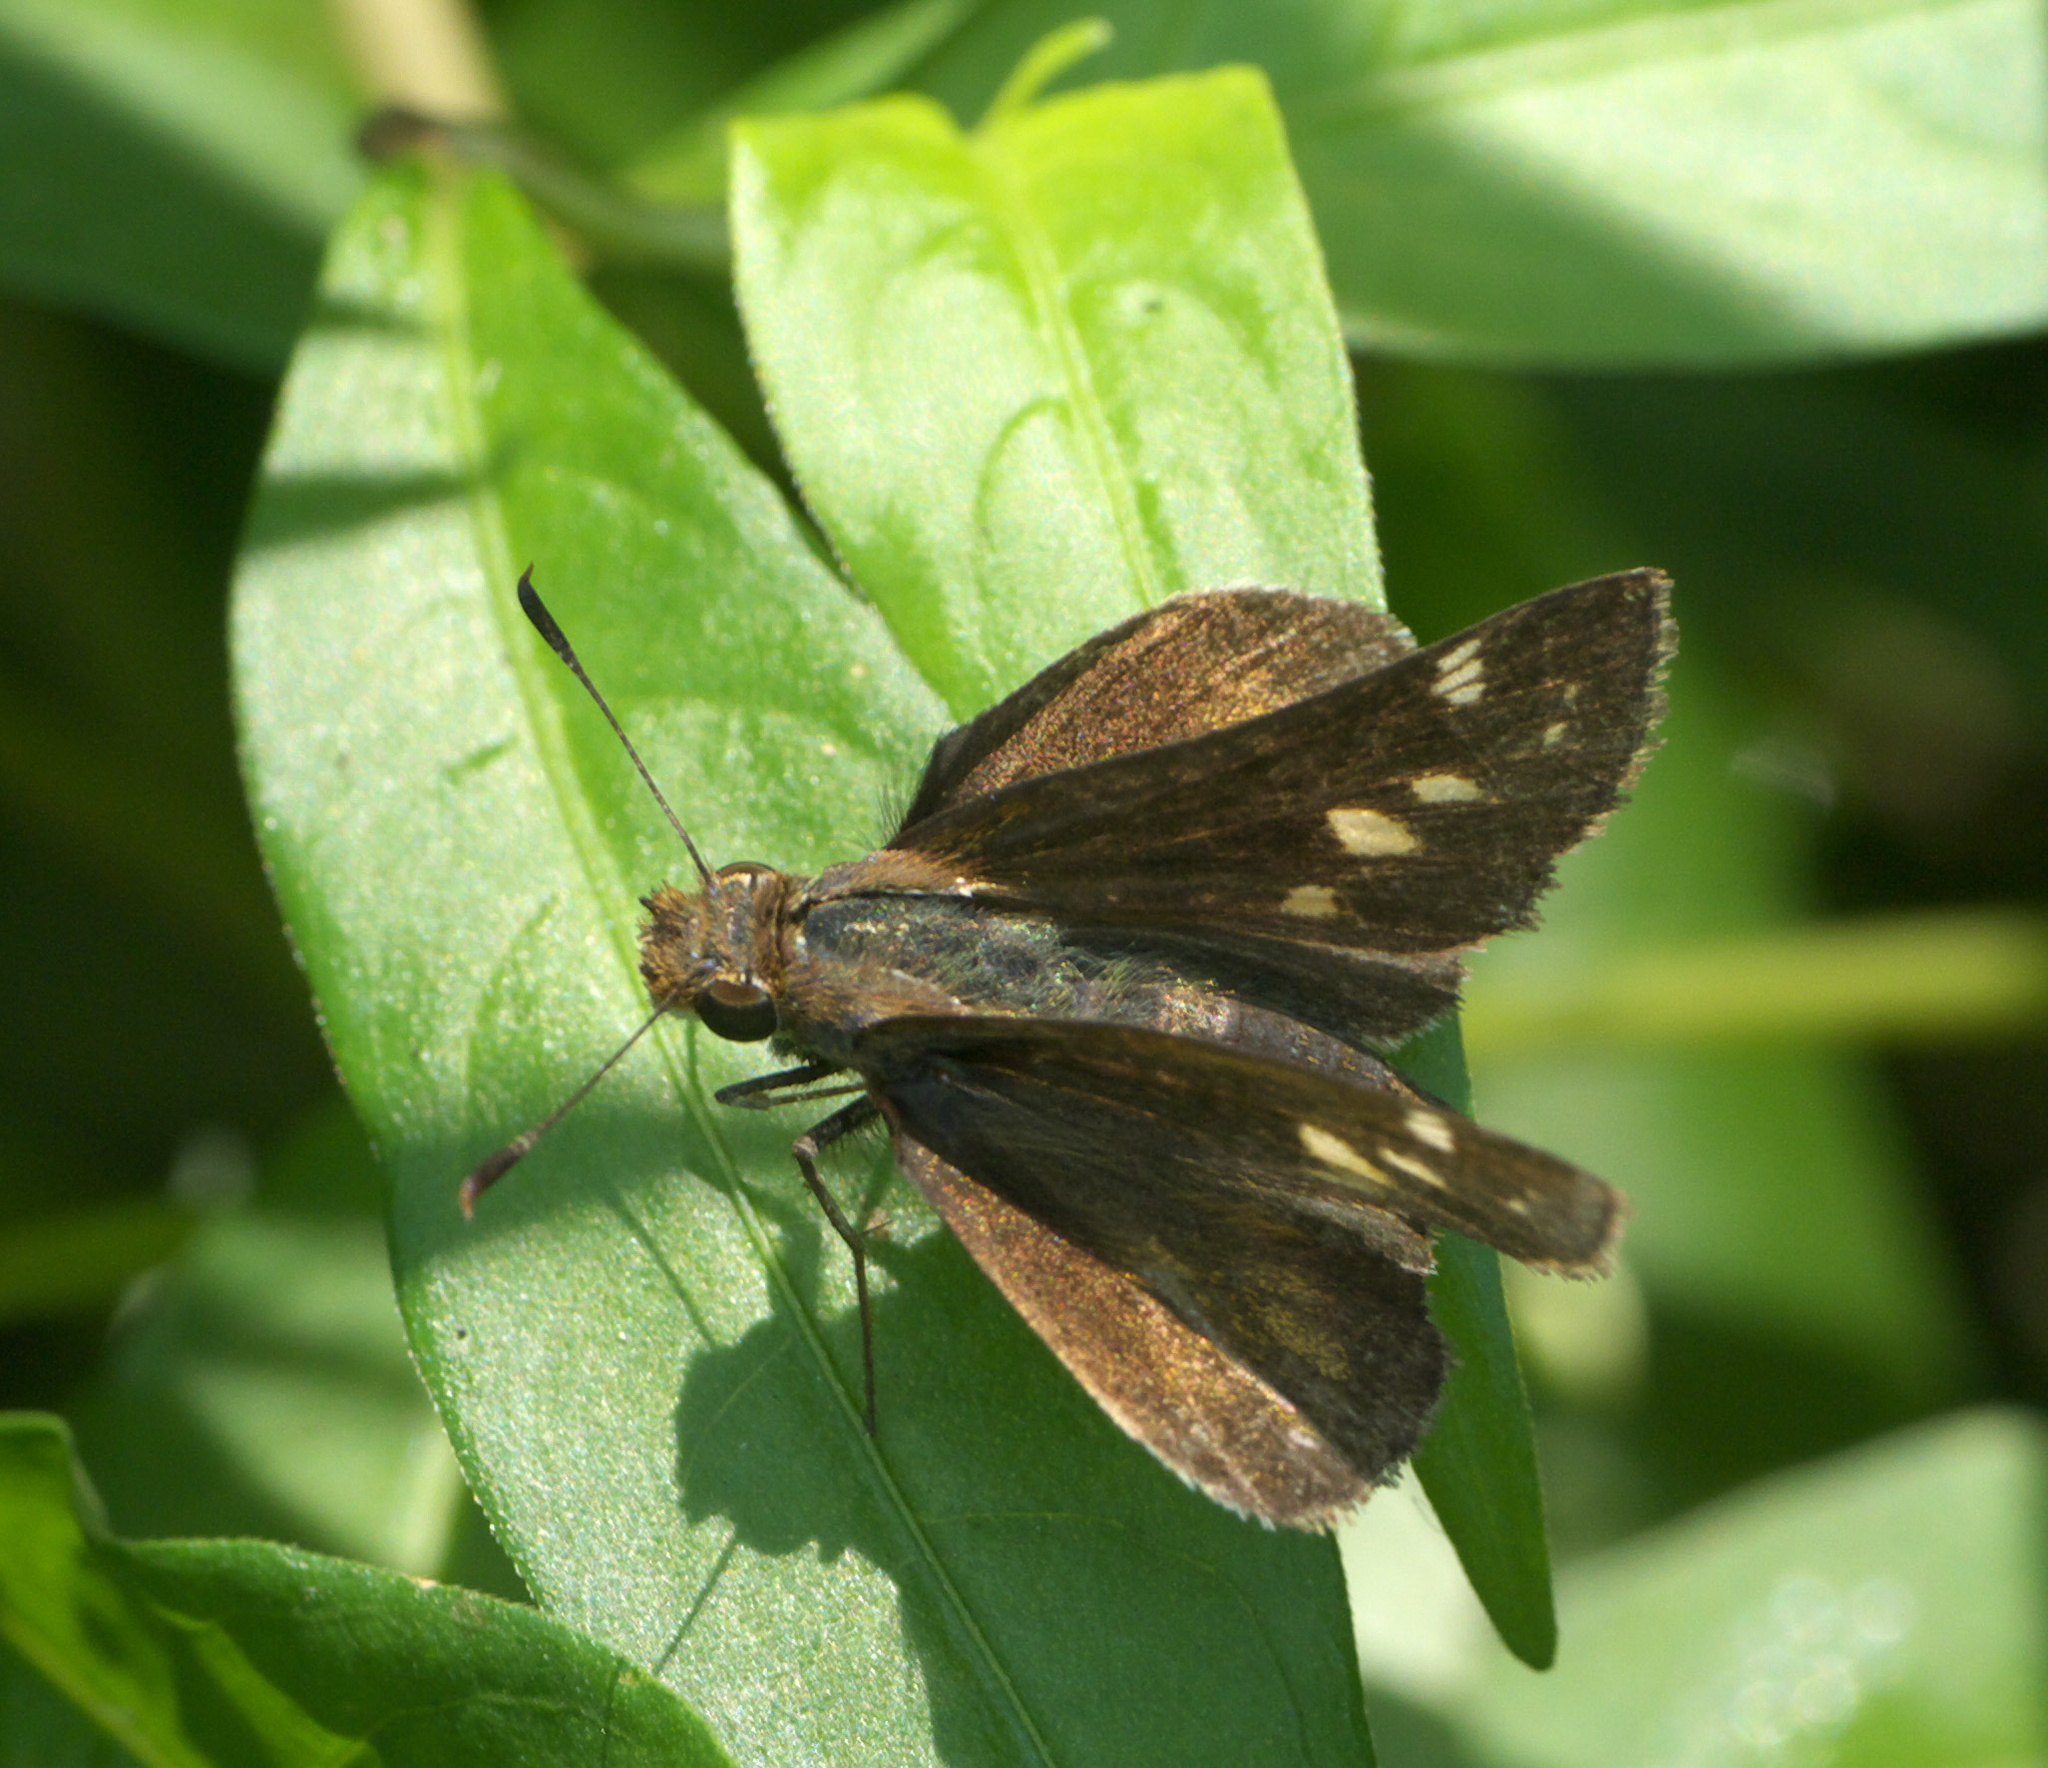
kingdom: Animalia
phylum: Arthropoda
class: Insecta
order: Lepidoptera
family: Hesperiidae
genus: Lon
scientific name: Lon zabulon
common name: Zabulon skipper
